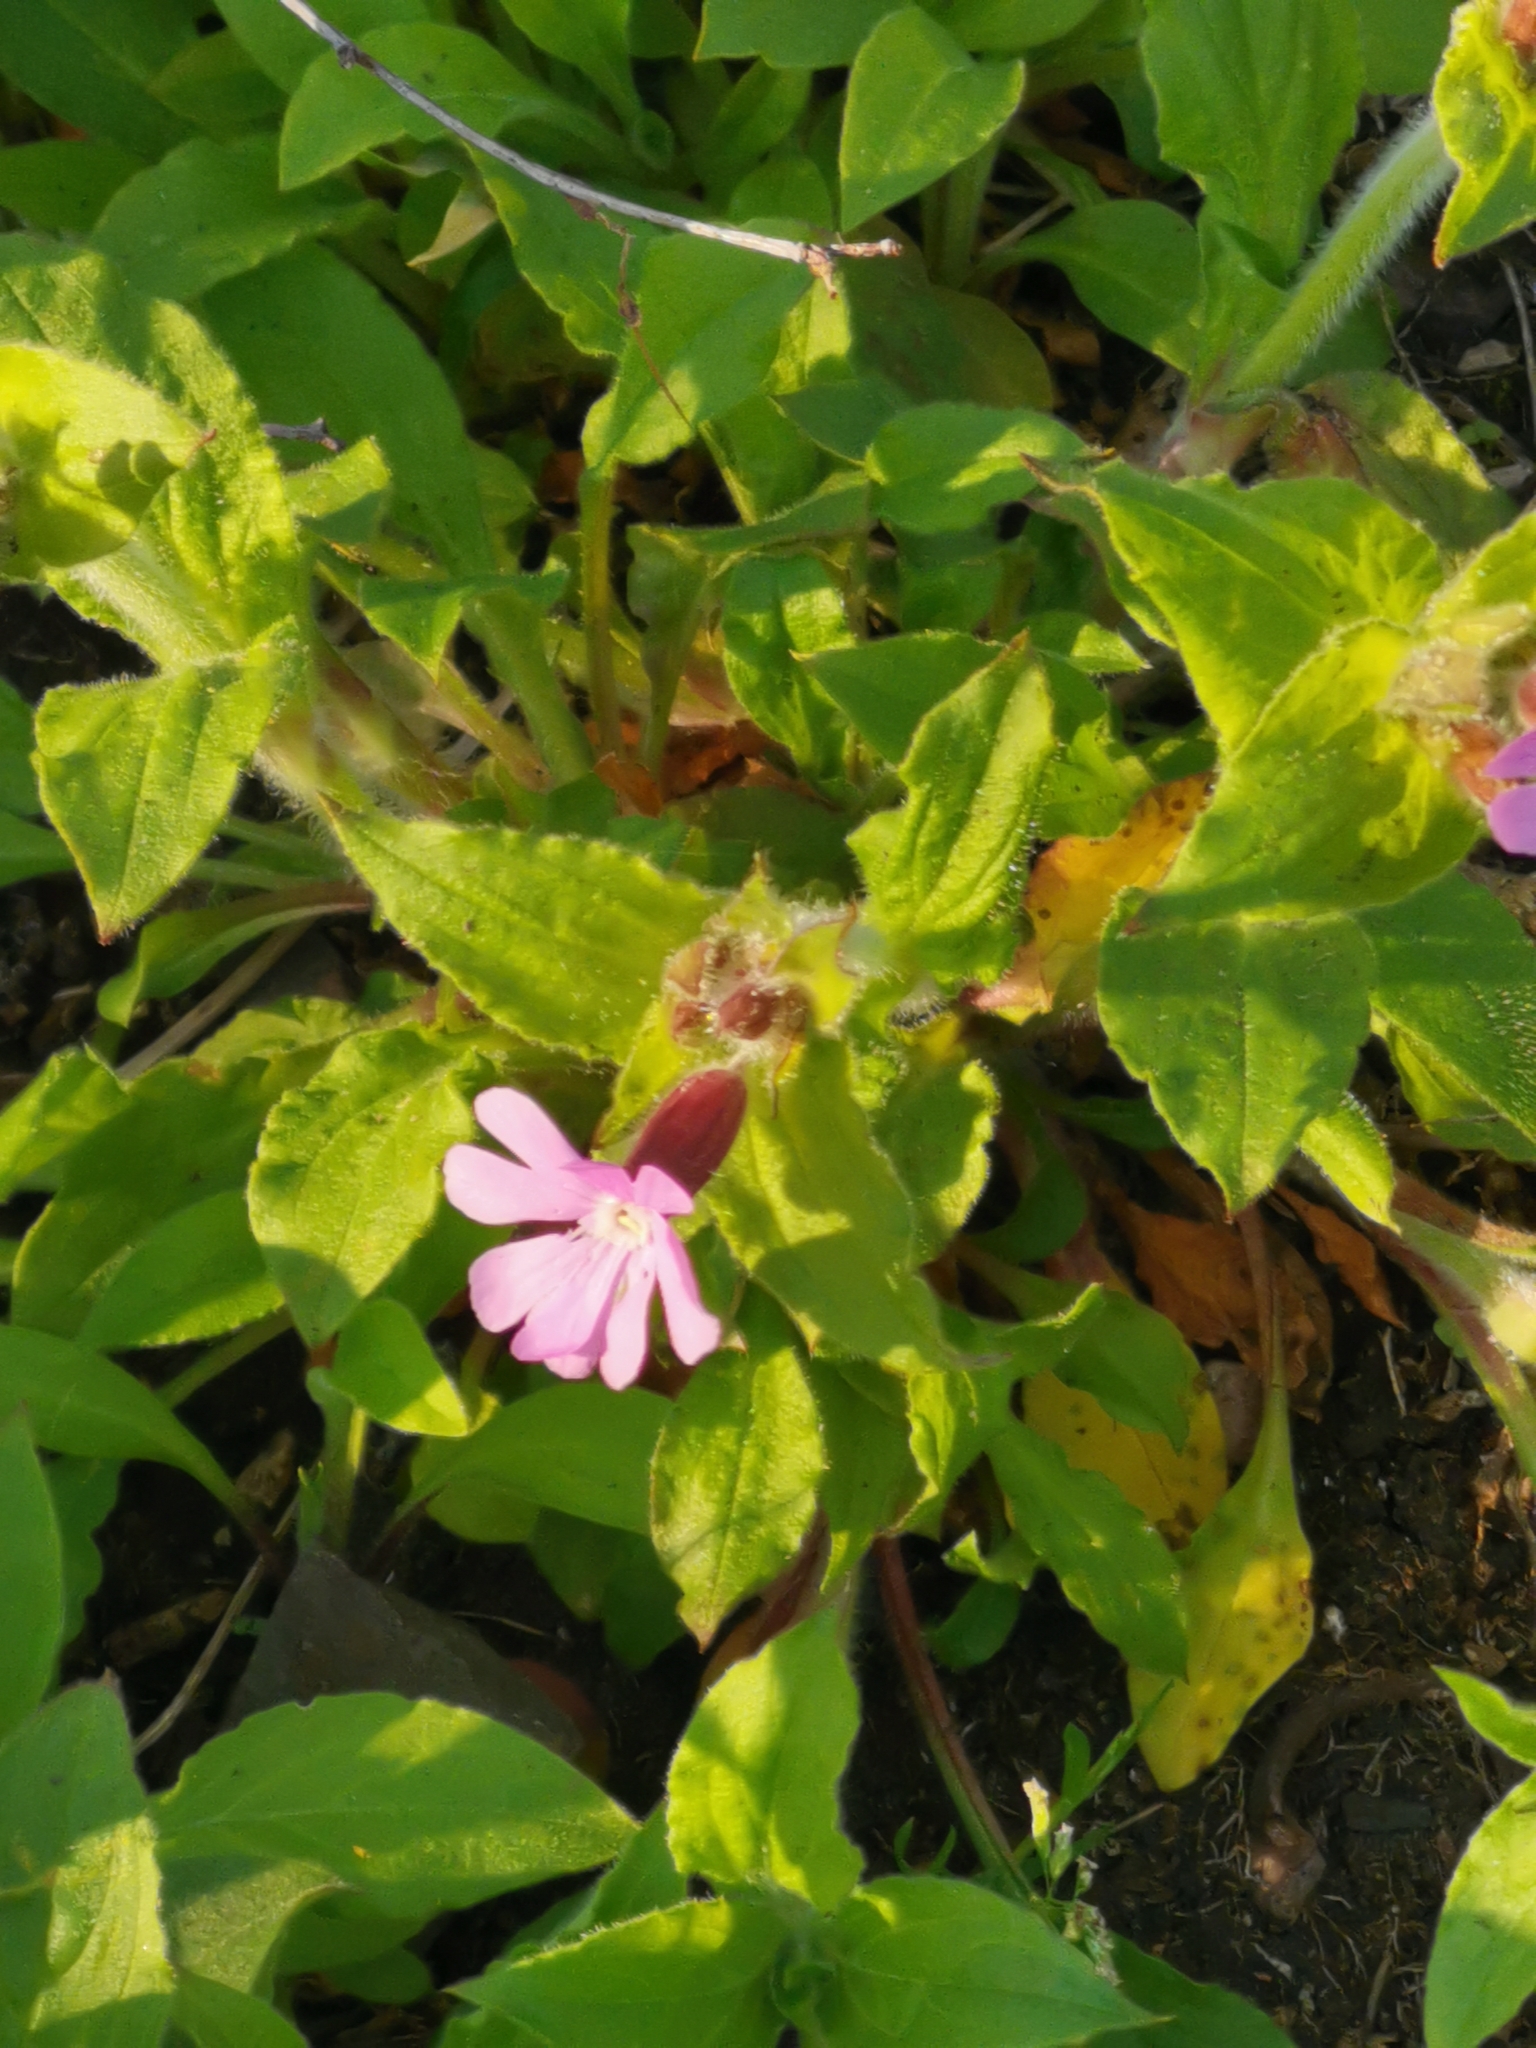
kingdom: Plantae
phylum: Tracheophyta
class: Magnoliopsida
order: Caryophyllales
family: Caryophyllaceae
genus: Silene
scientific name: Silene dioica
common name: Red campion
